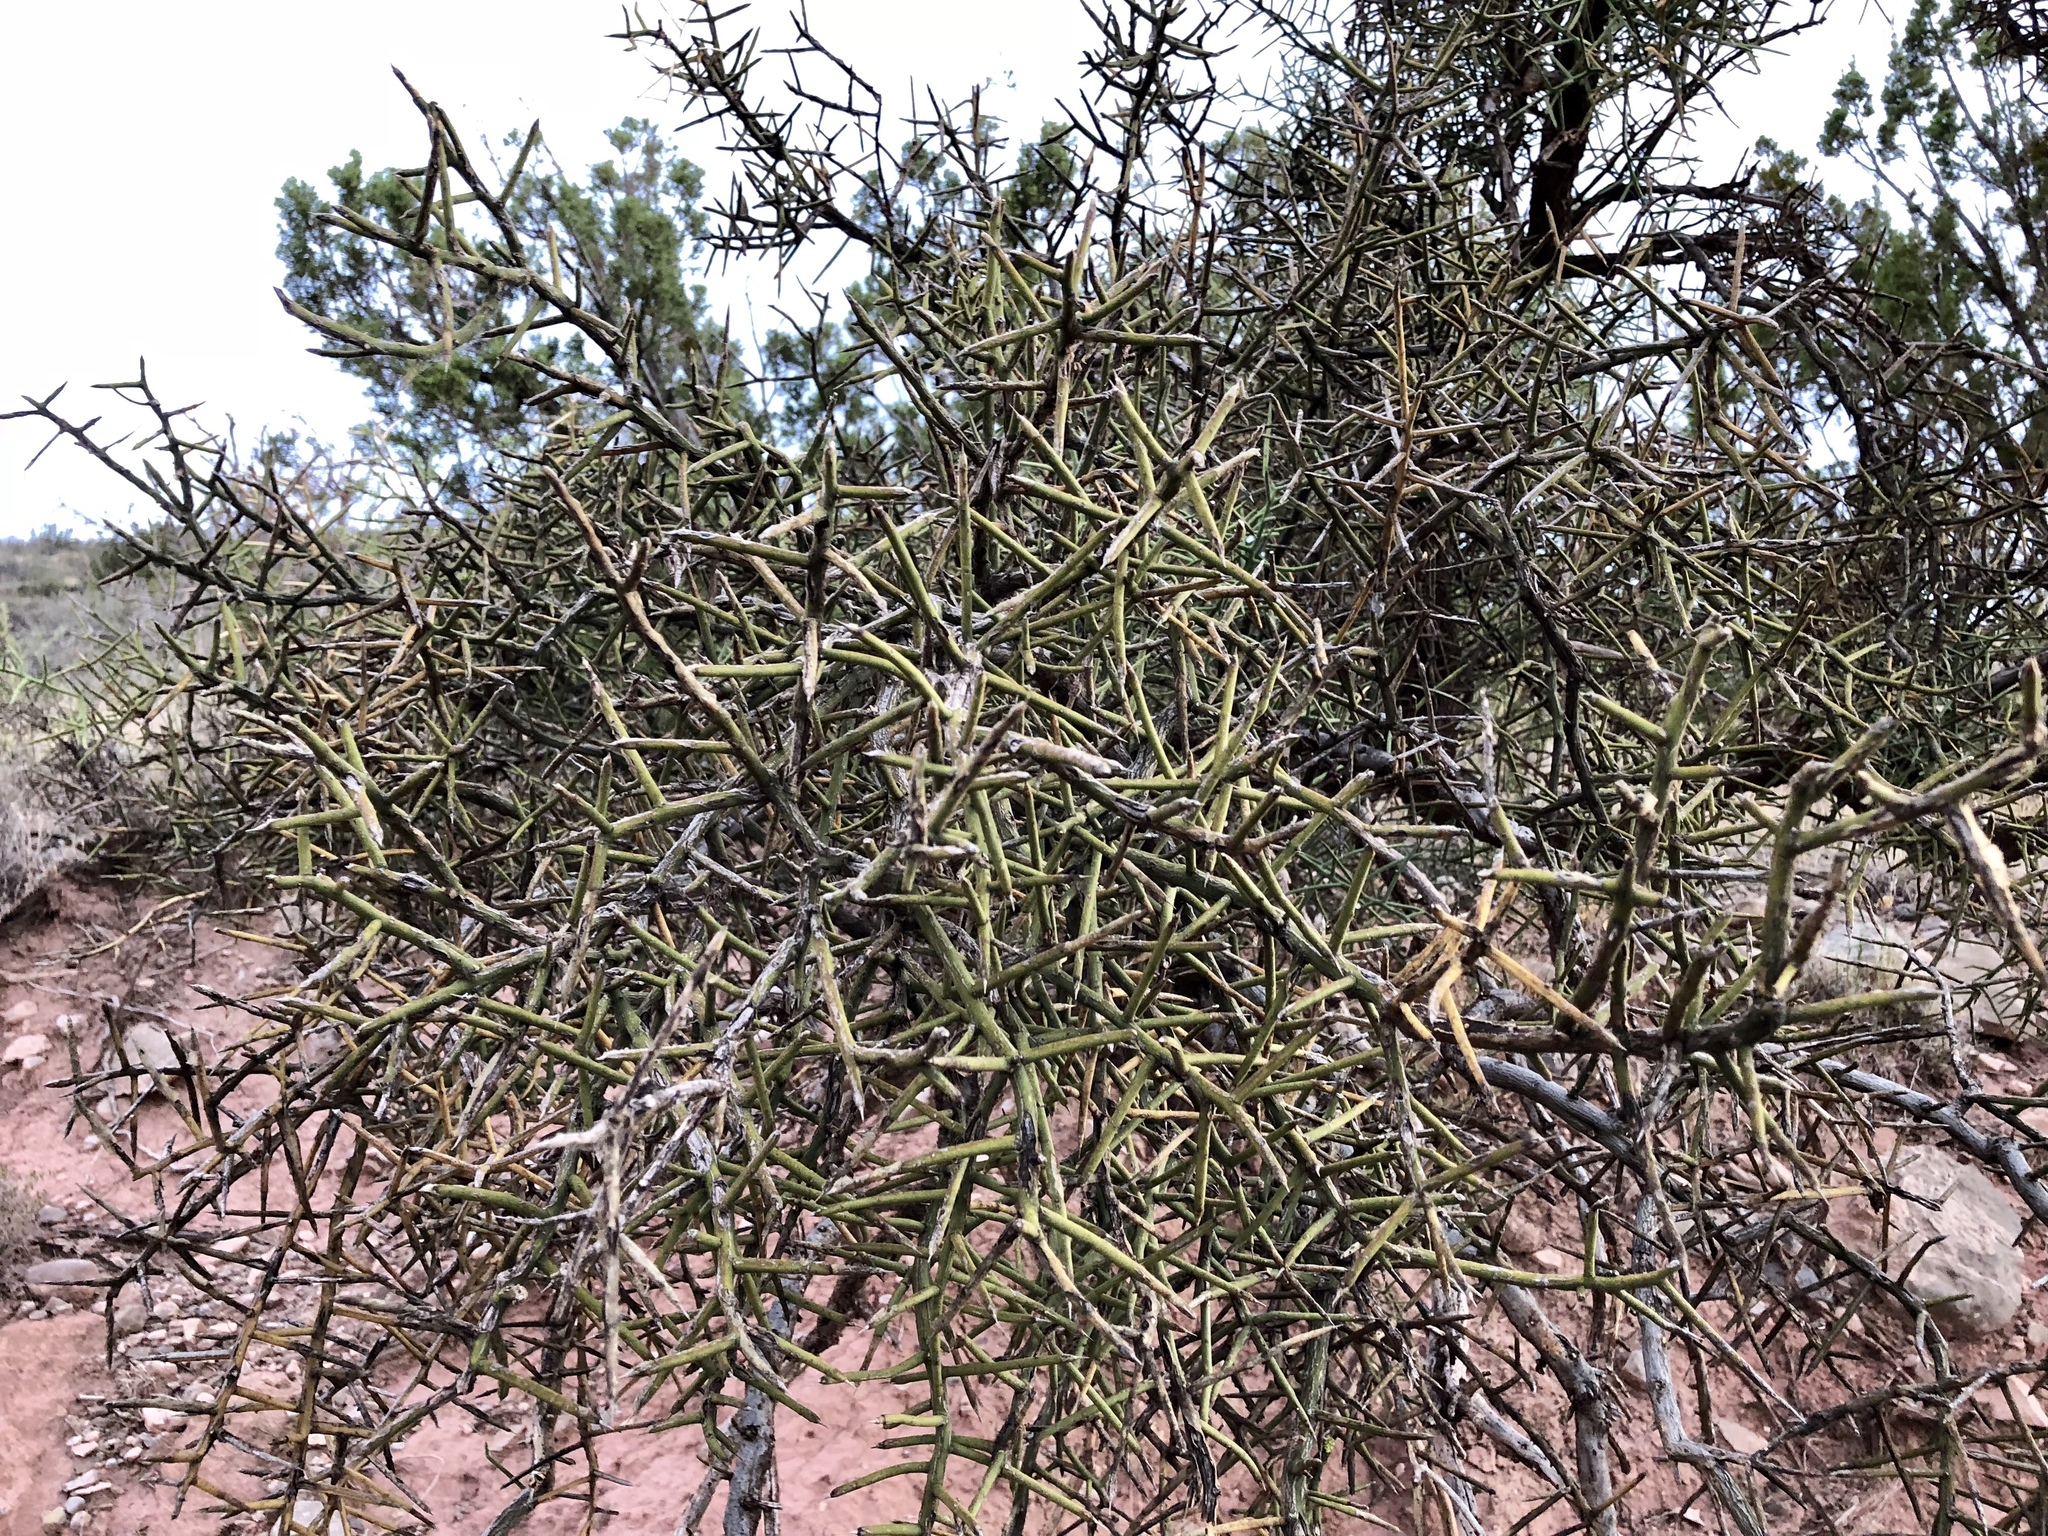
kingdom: Plantae
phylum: Tracheophyta
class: Magnoliopsida
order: Brassicales
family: Koeberliniaceae
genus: Koeberlinia
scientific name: Koeberlinia spinosa
